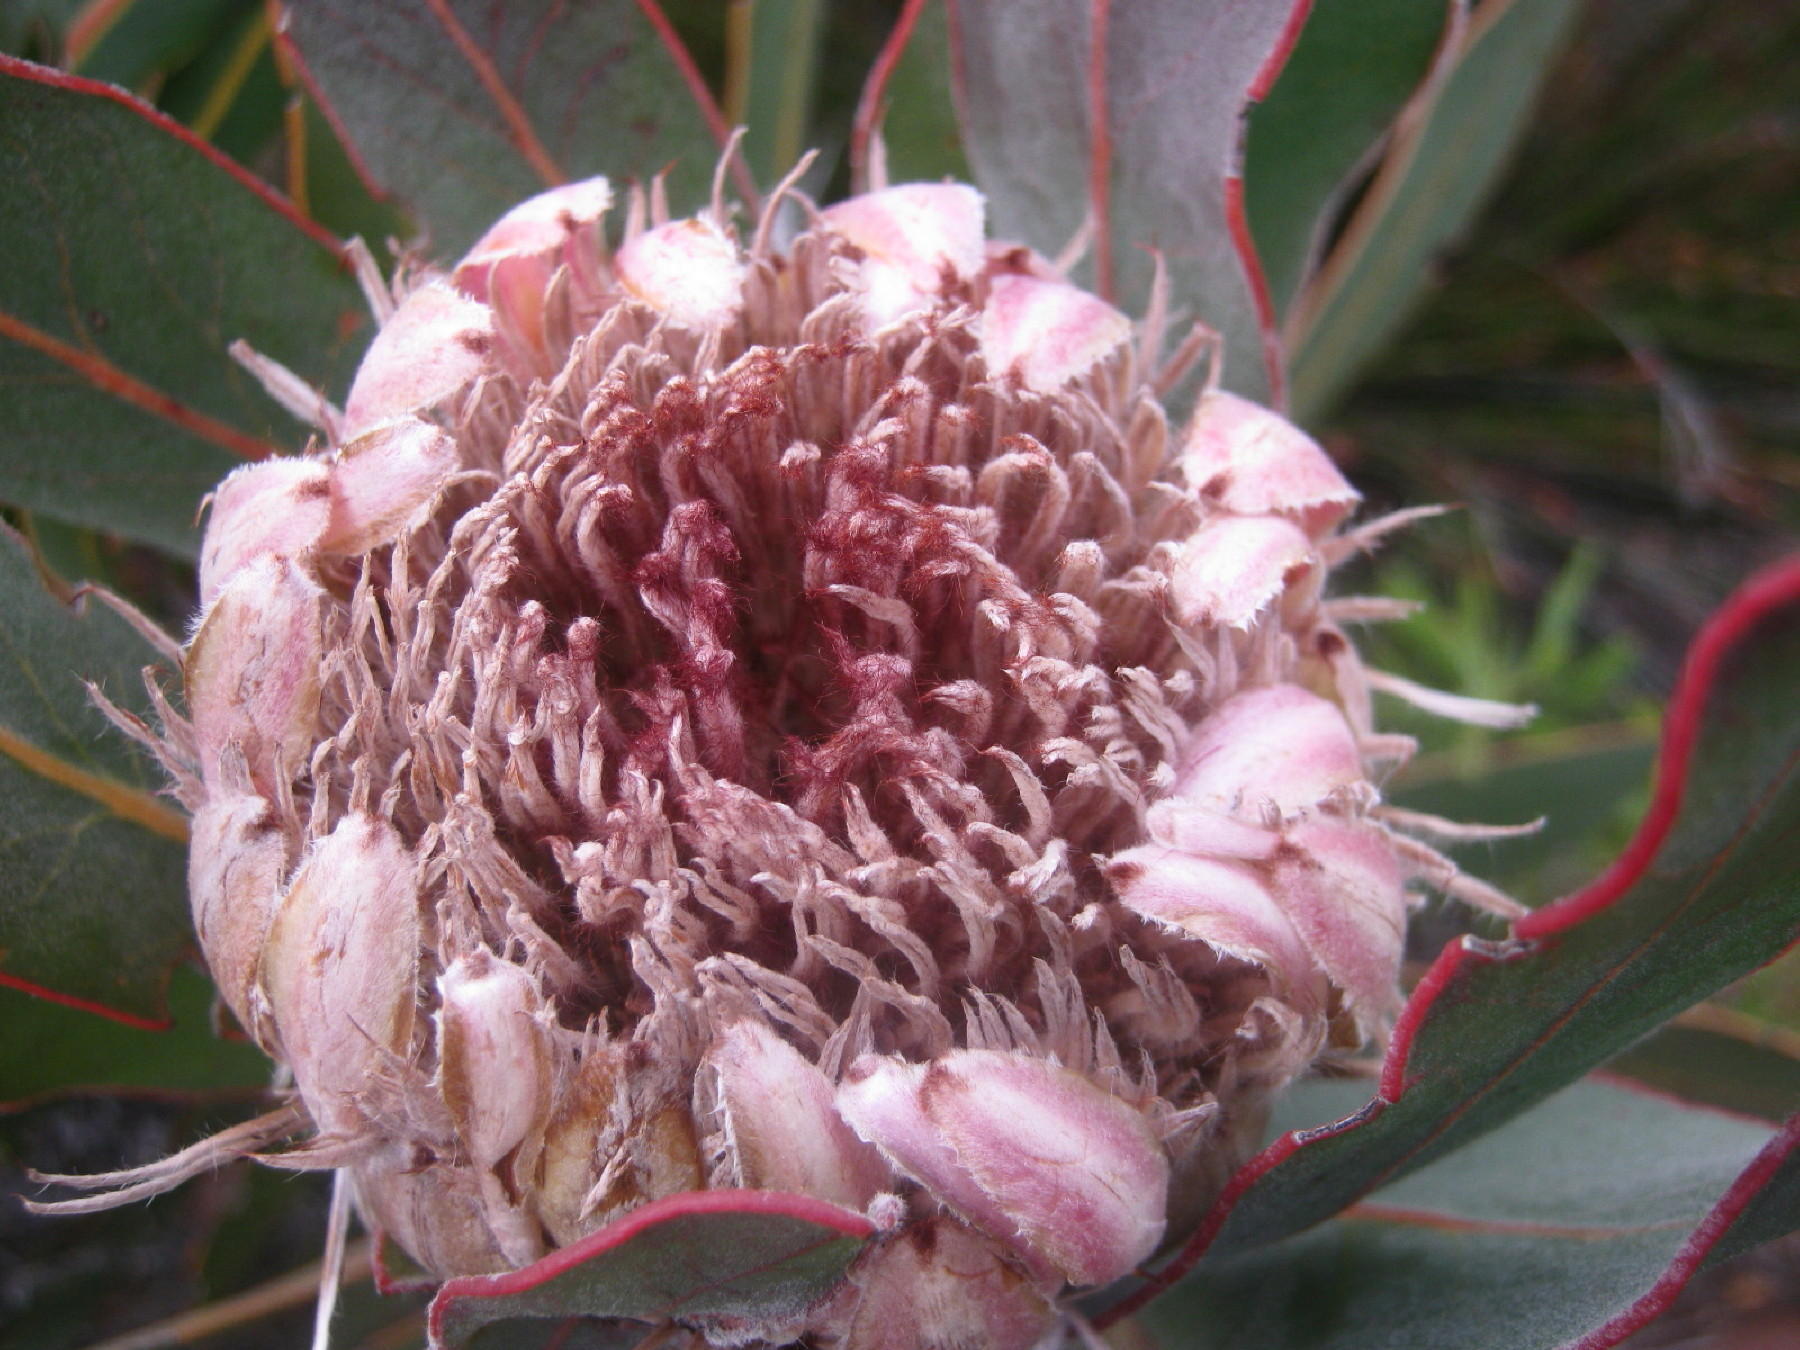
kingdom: Plantae
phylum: Tracheophyta
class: Magnoliopsida
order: Proteales
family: Proteaceae
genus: Protea
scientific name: Protea lorifolia
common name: Strap-leaved protea
